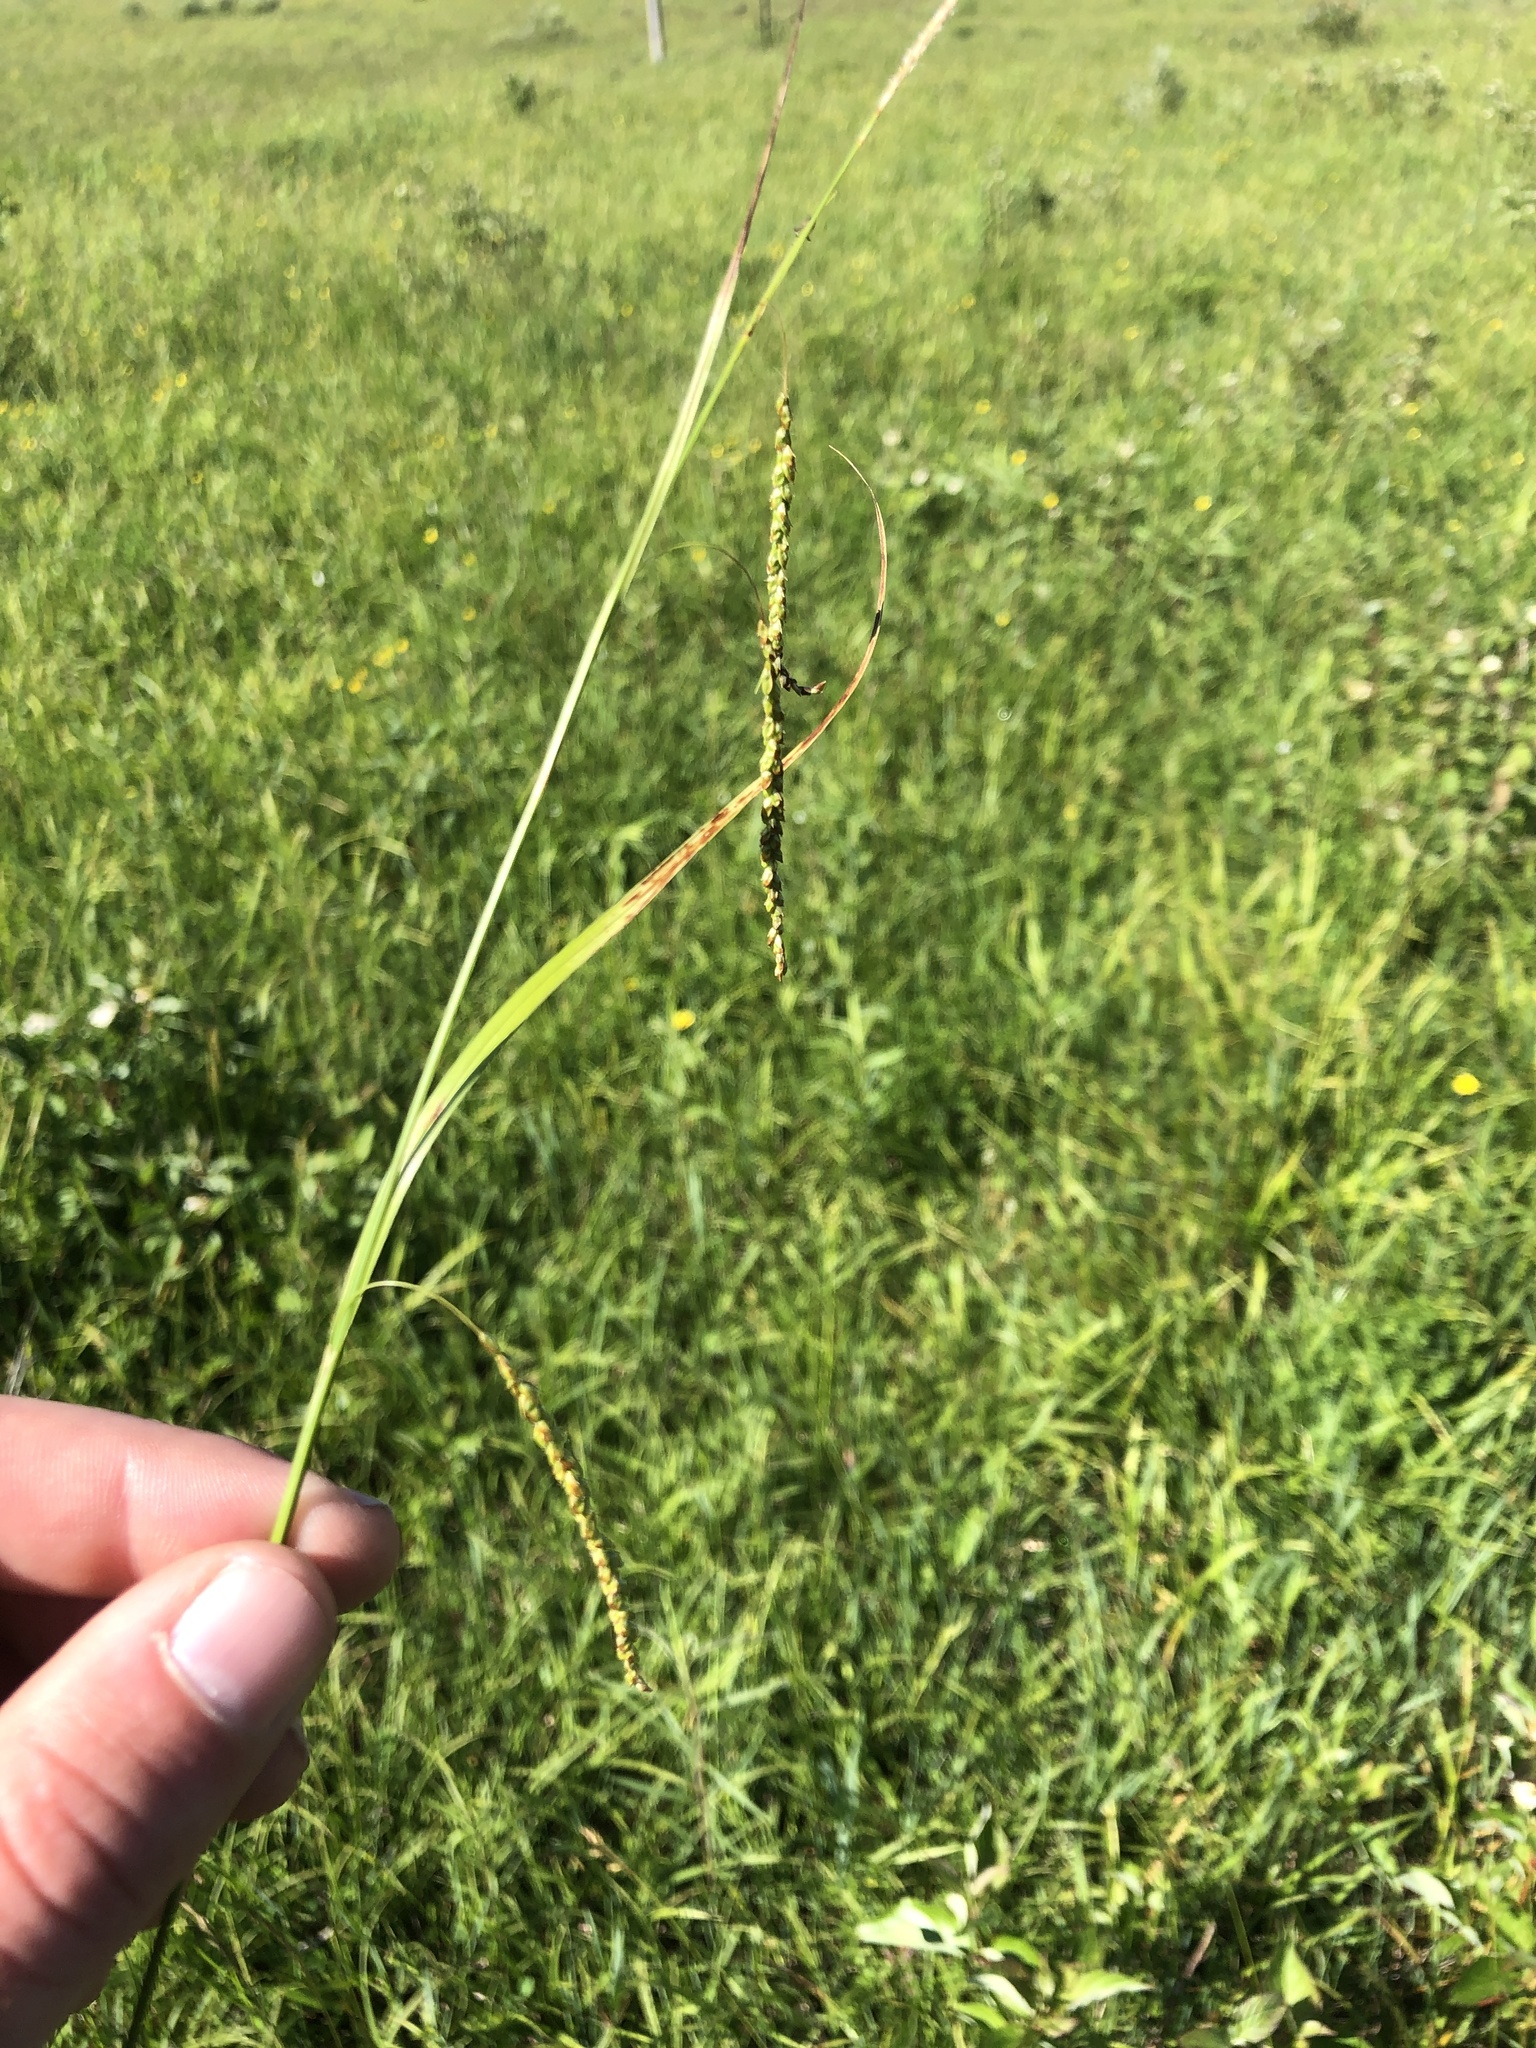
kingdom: Plantae
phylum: Tracheophyta
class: Liliopsida
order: Poales
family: Cyperaceae
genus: Carex
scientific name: Carex gracillima
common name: Graceful sedge
